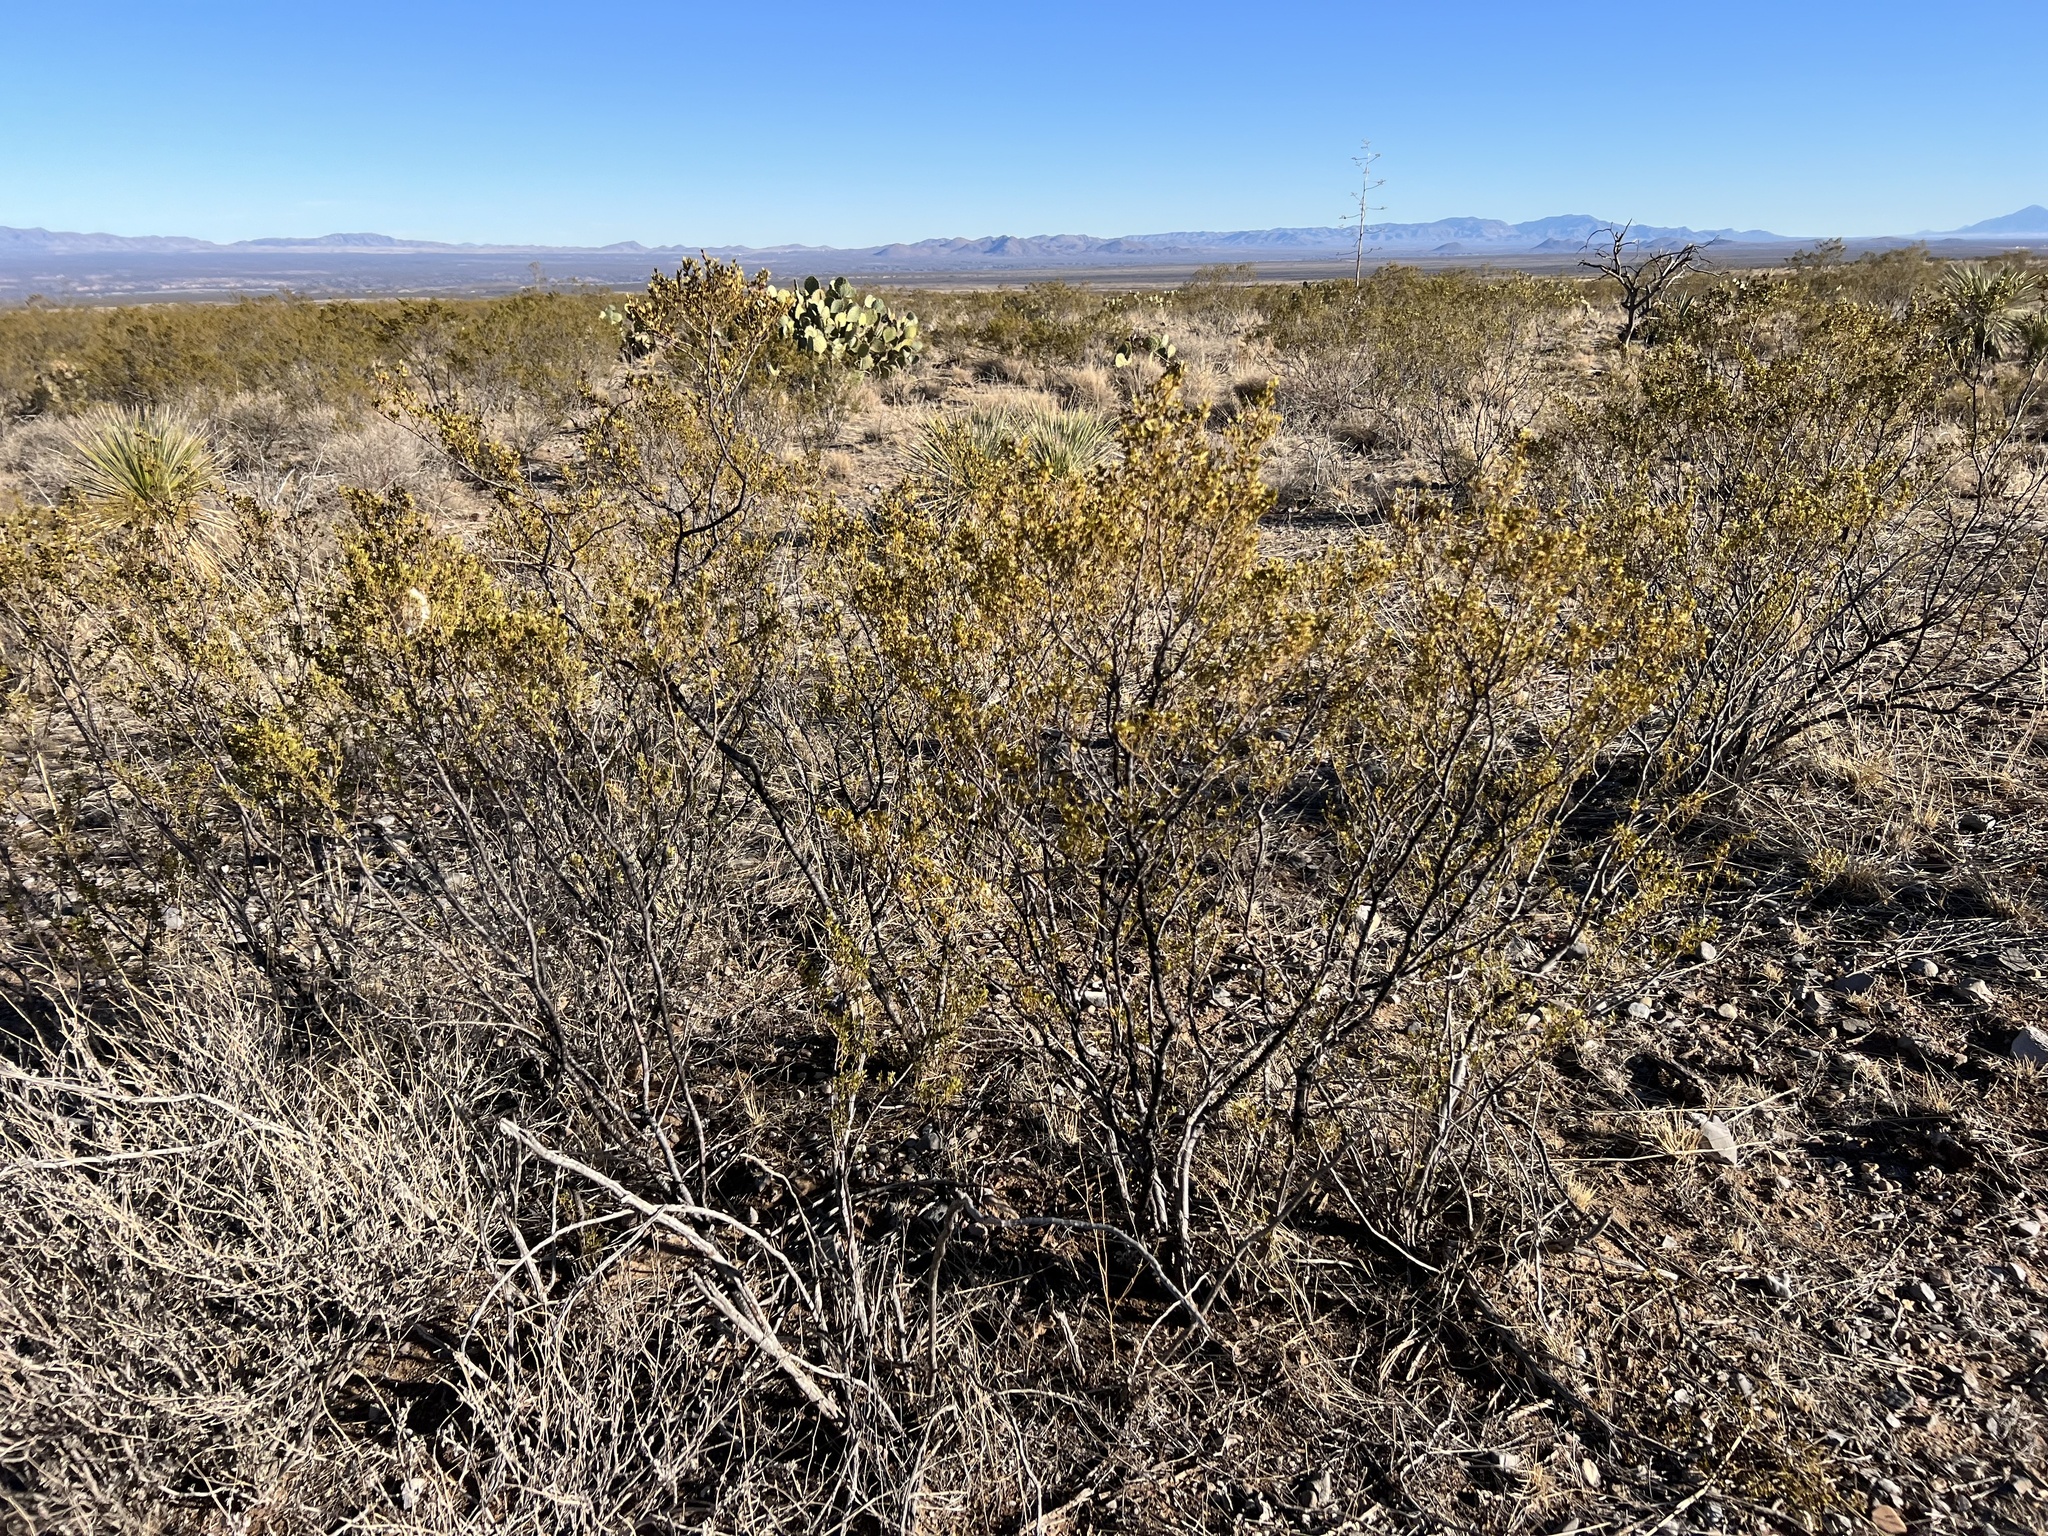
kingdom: Plantae
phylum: Tracheophyta
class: Magnoliopsida
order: Zygophyllales
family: Zygophyllaceae
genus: Larrea
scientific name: Larrea tridentata
